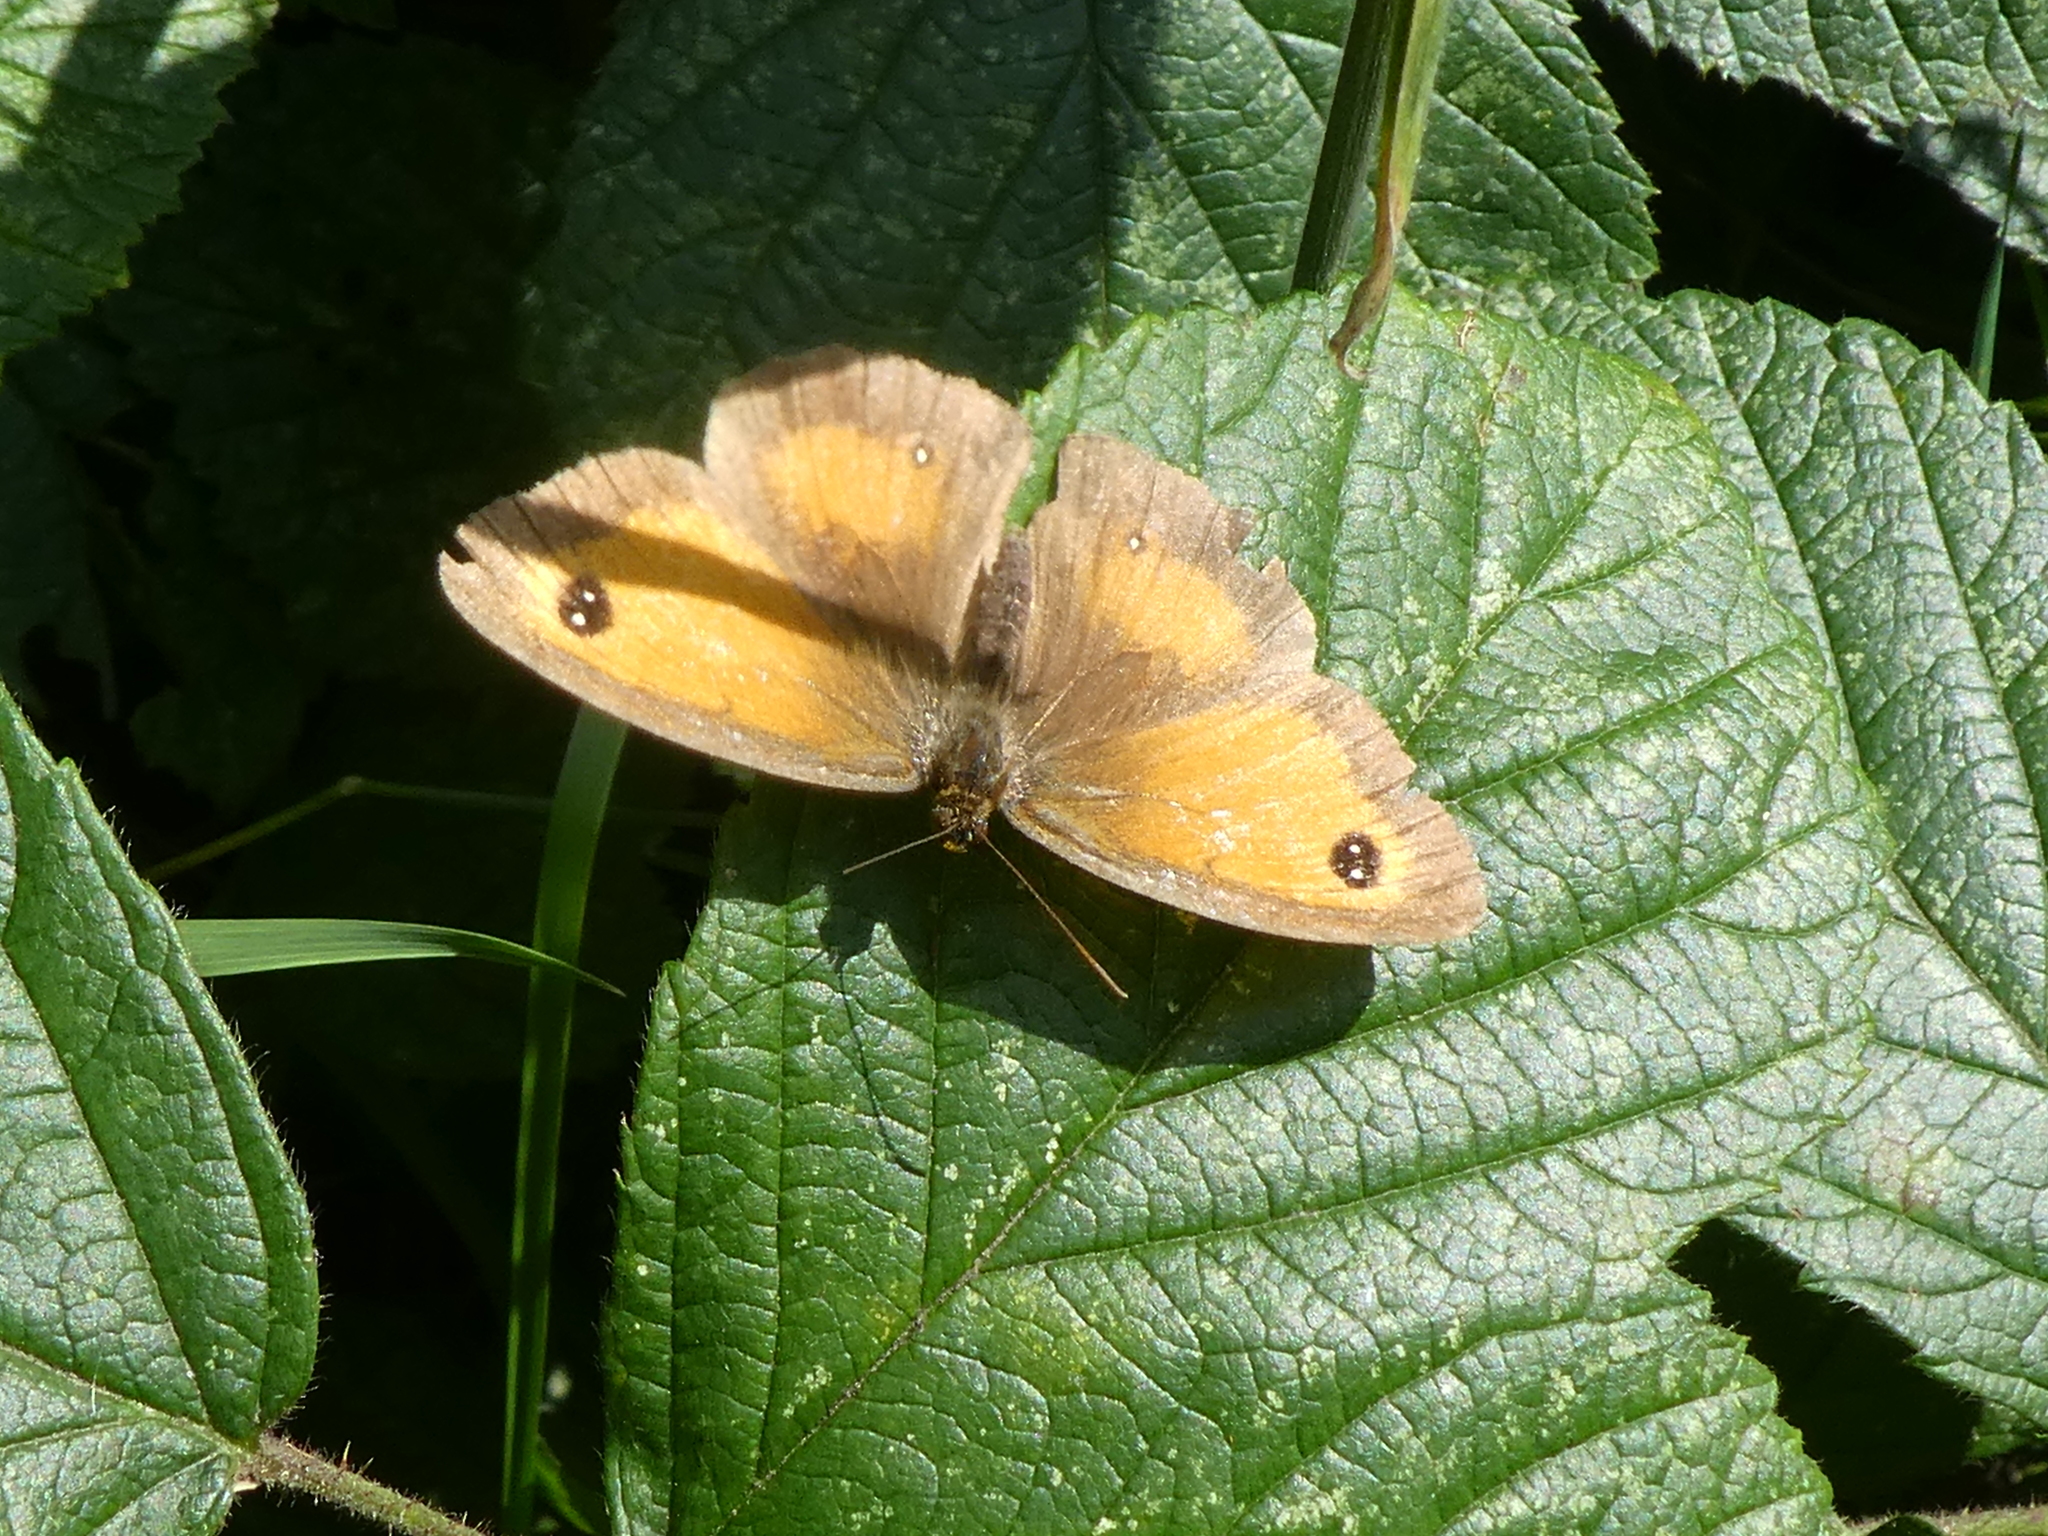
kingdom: Animalia
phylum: Arthropoda
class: Insecta
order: Lepidoptera
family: Nymphalidae
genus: Pyronia
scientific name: Pyronia tithonus
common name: Gatekeeper
